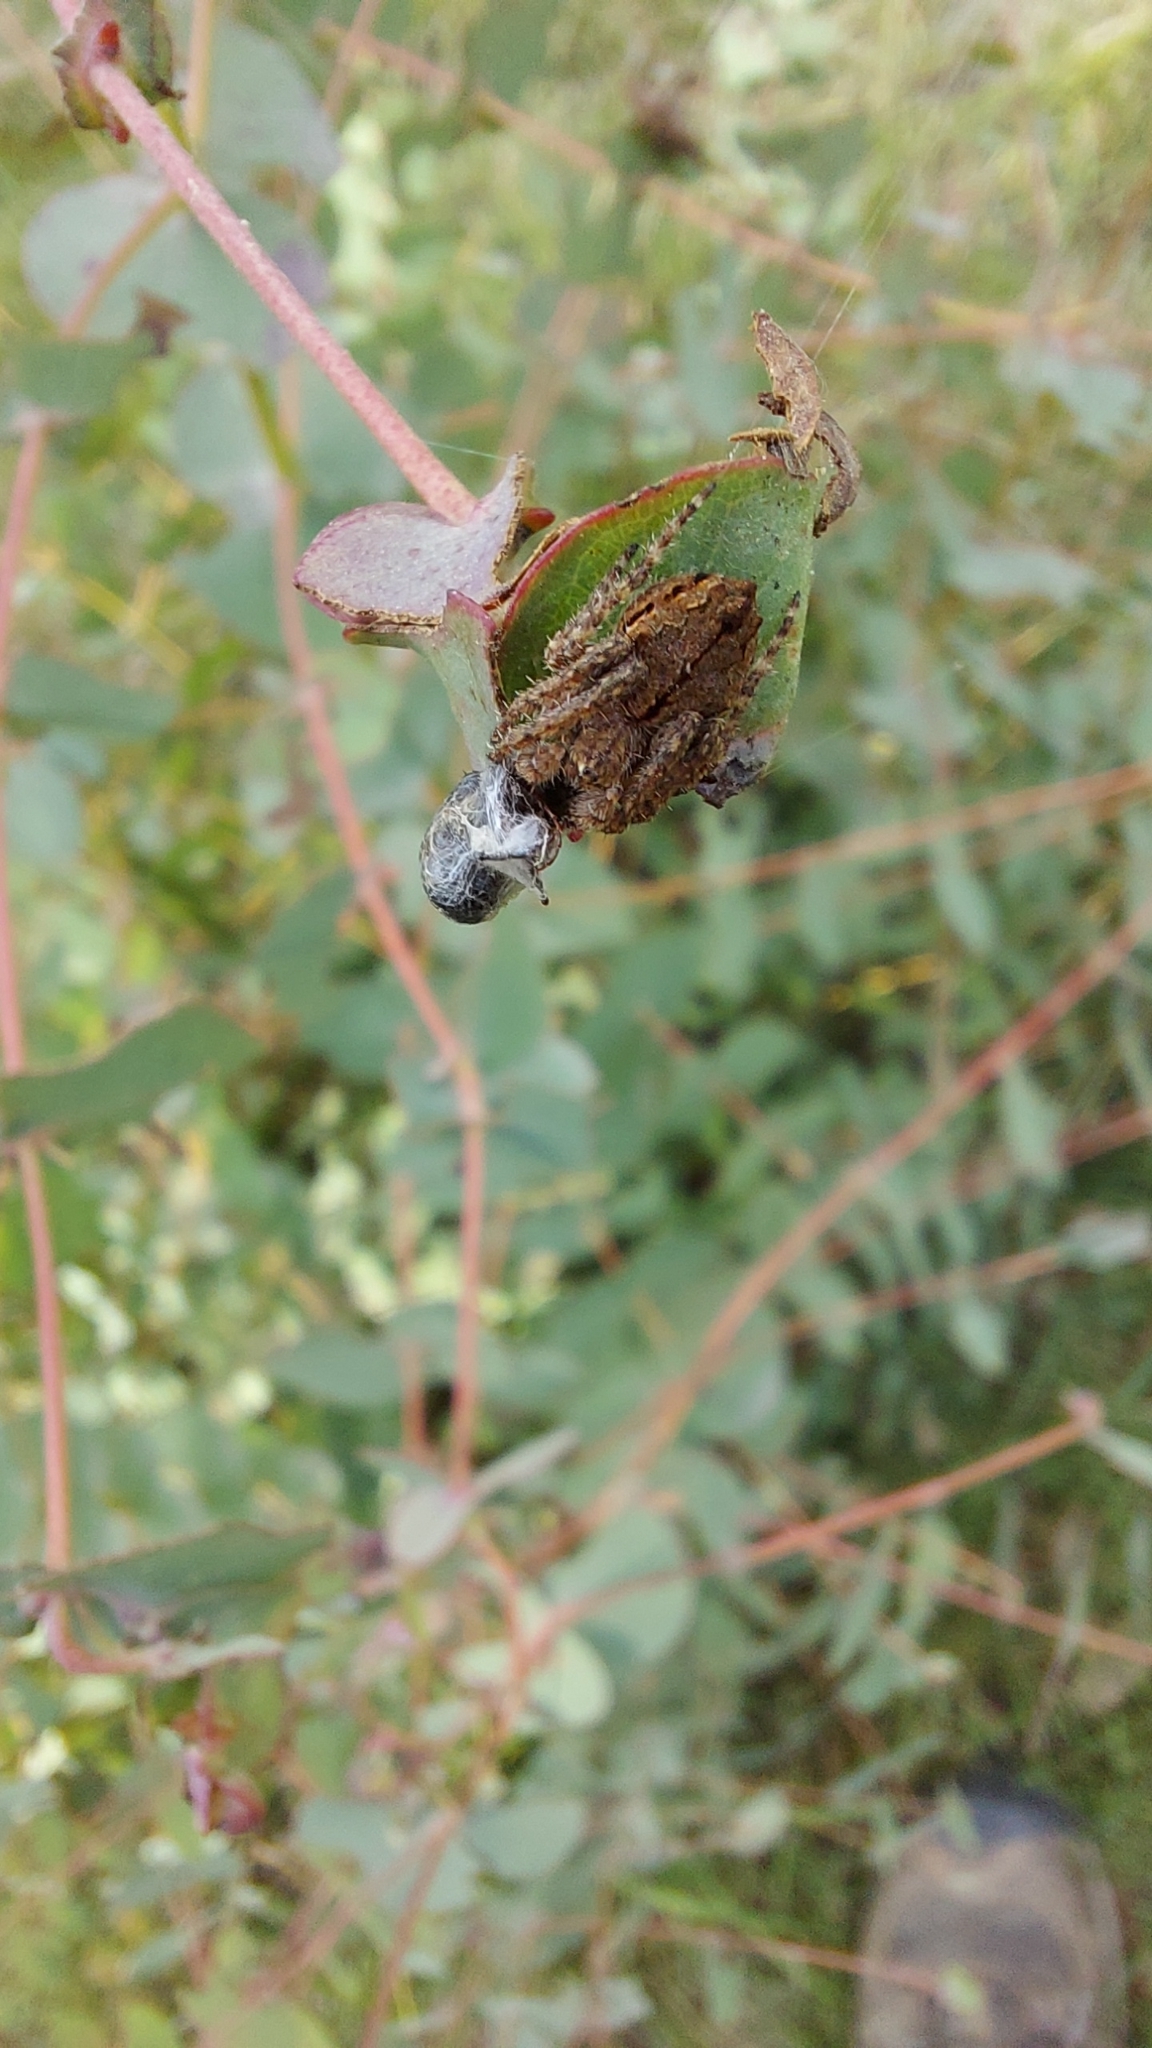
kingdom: Animalia
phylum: Arthropoda
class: Arachnida
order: Araneae
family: Araneidae
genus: Eriophora
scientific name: Eriophora pustulosa
